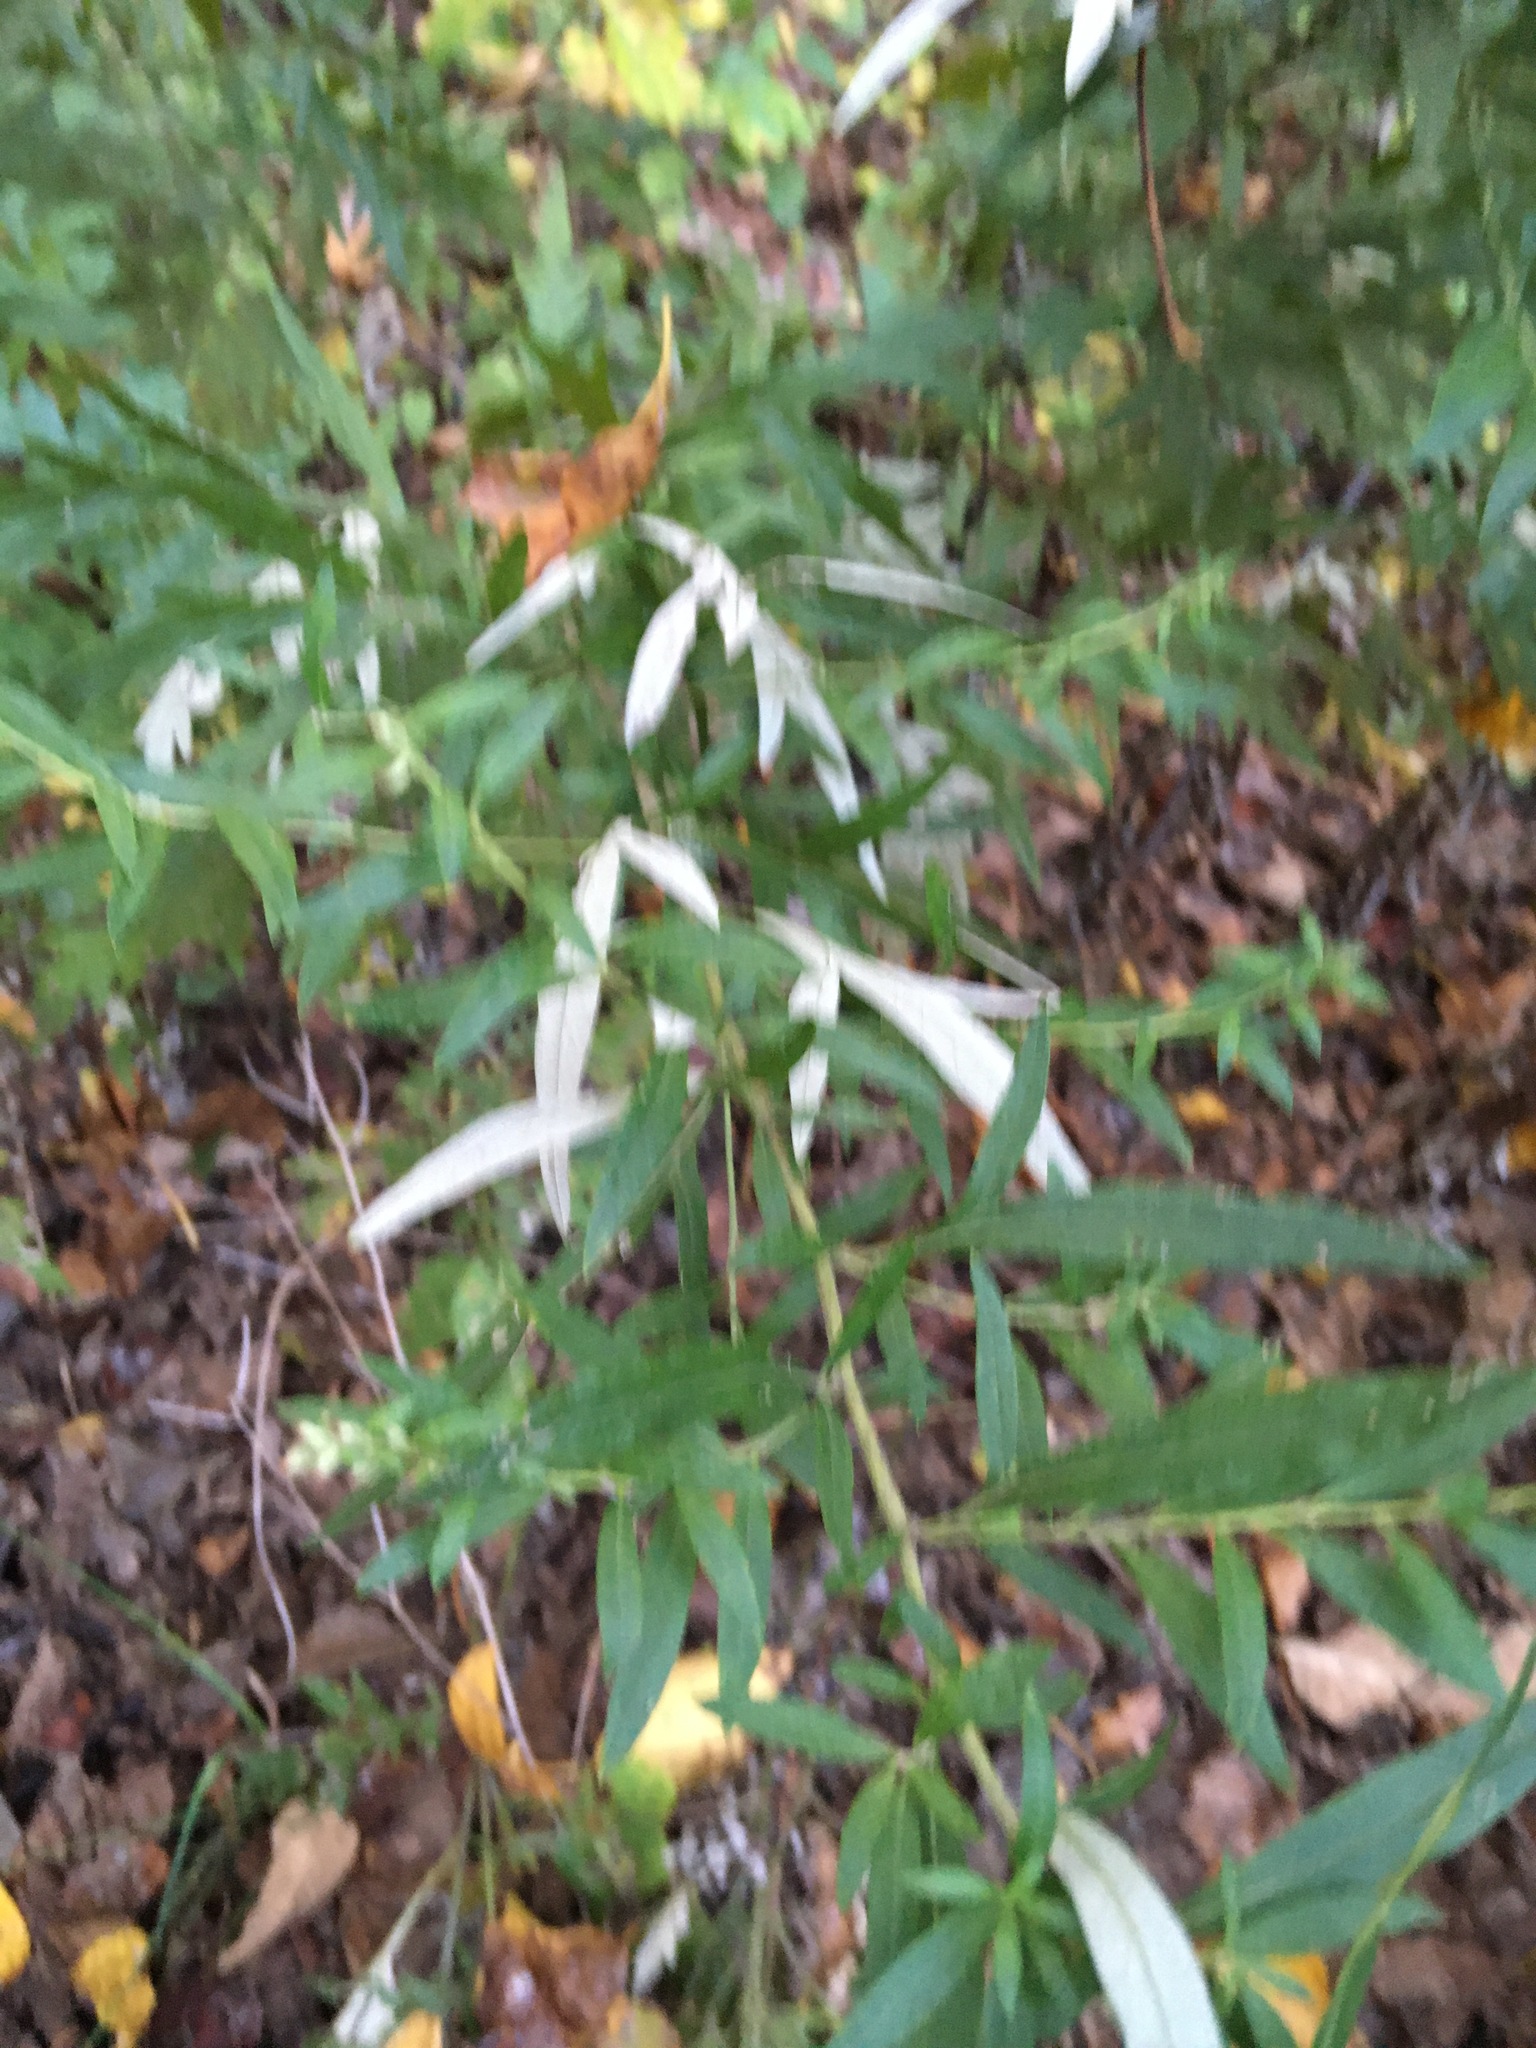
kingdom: Plantae
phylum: Tracheophyta
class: Magnoliopsida
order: Asterales
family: Asteraceae
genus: Artemisia
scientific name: Artemisia vulgaris
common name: Mugwort
